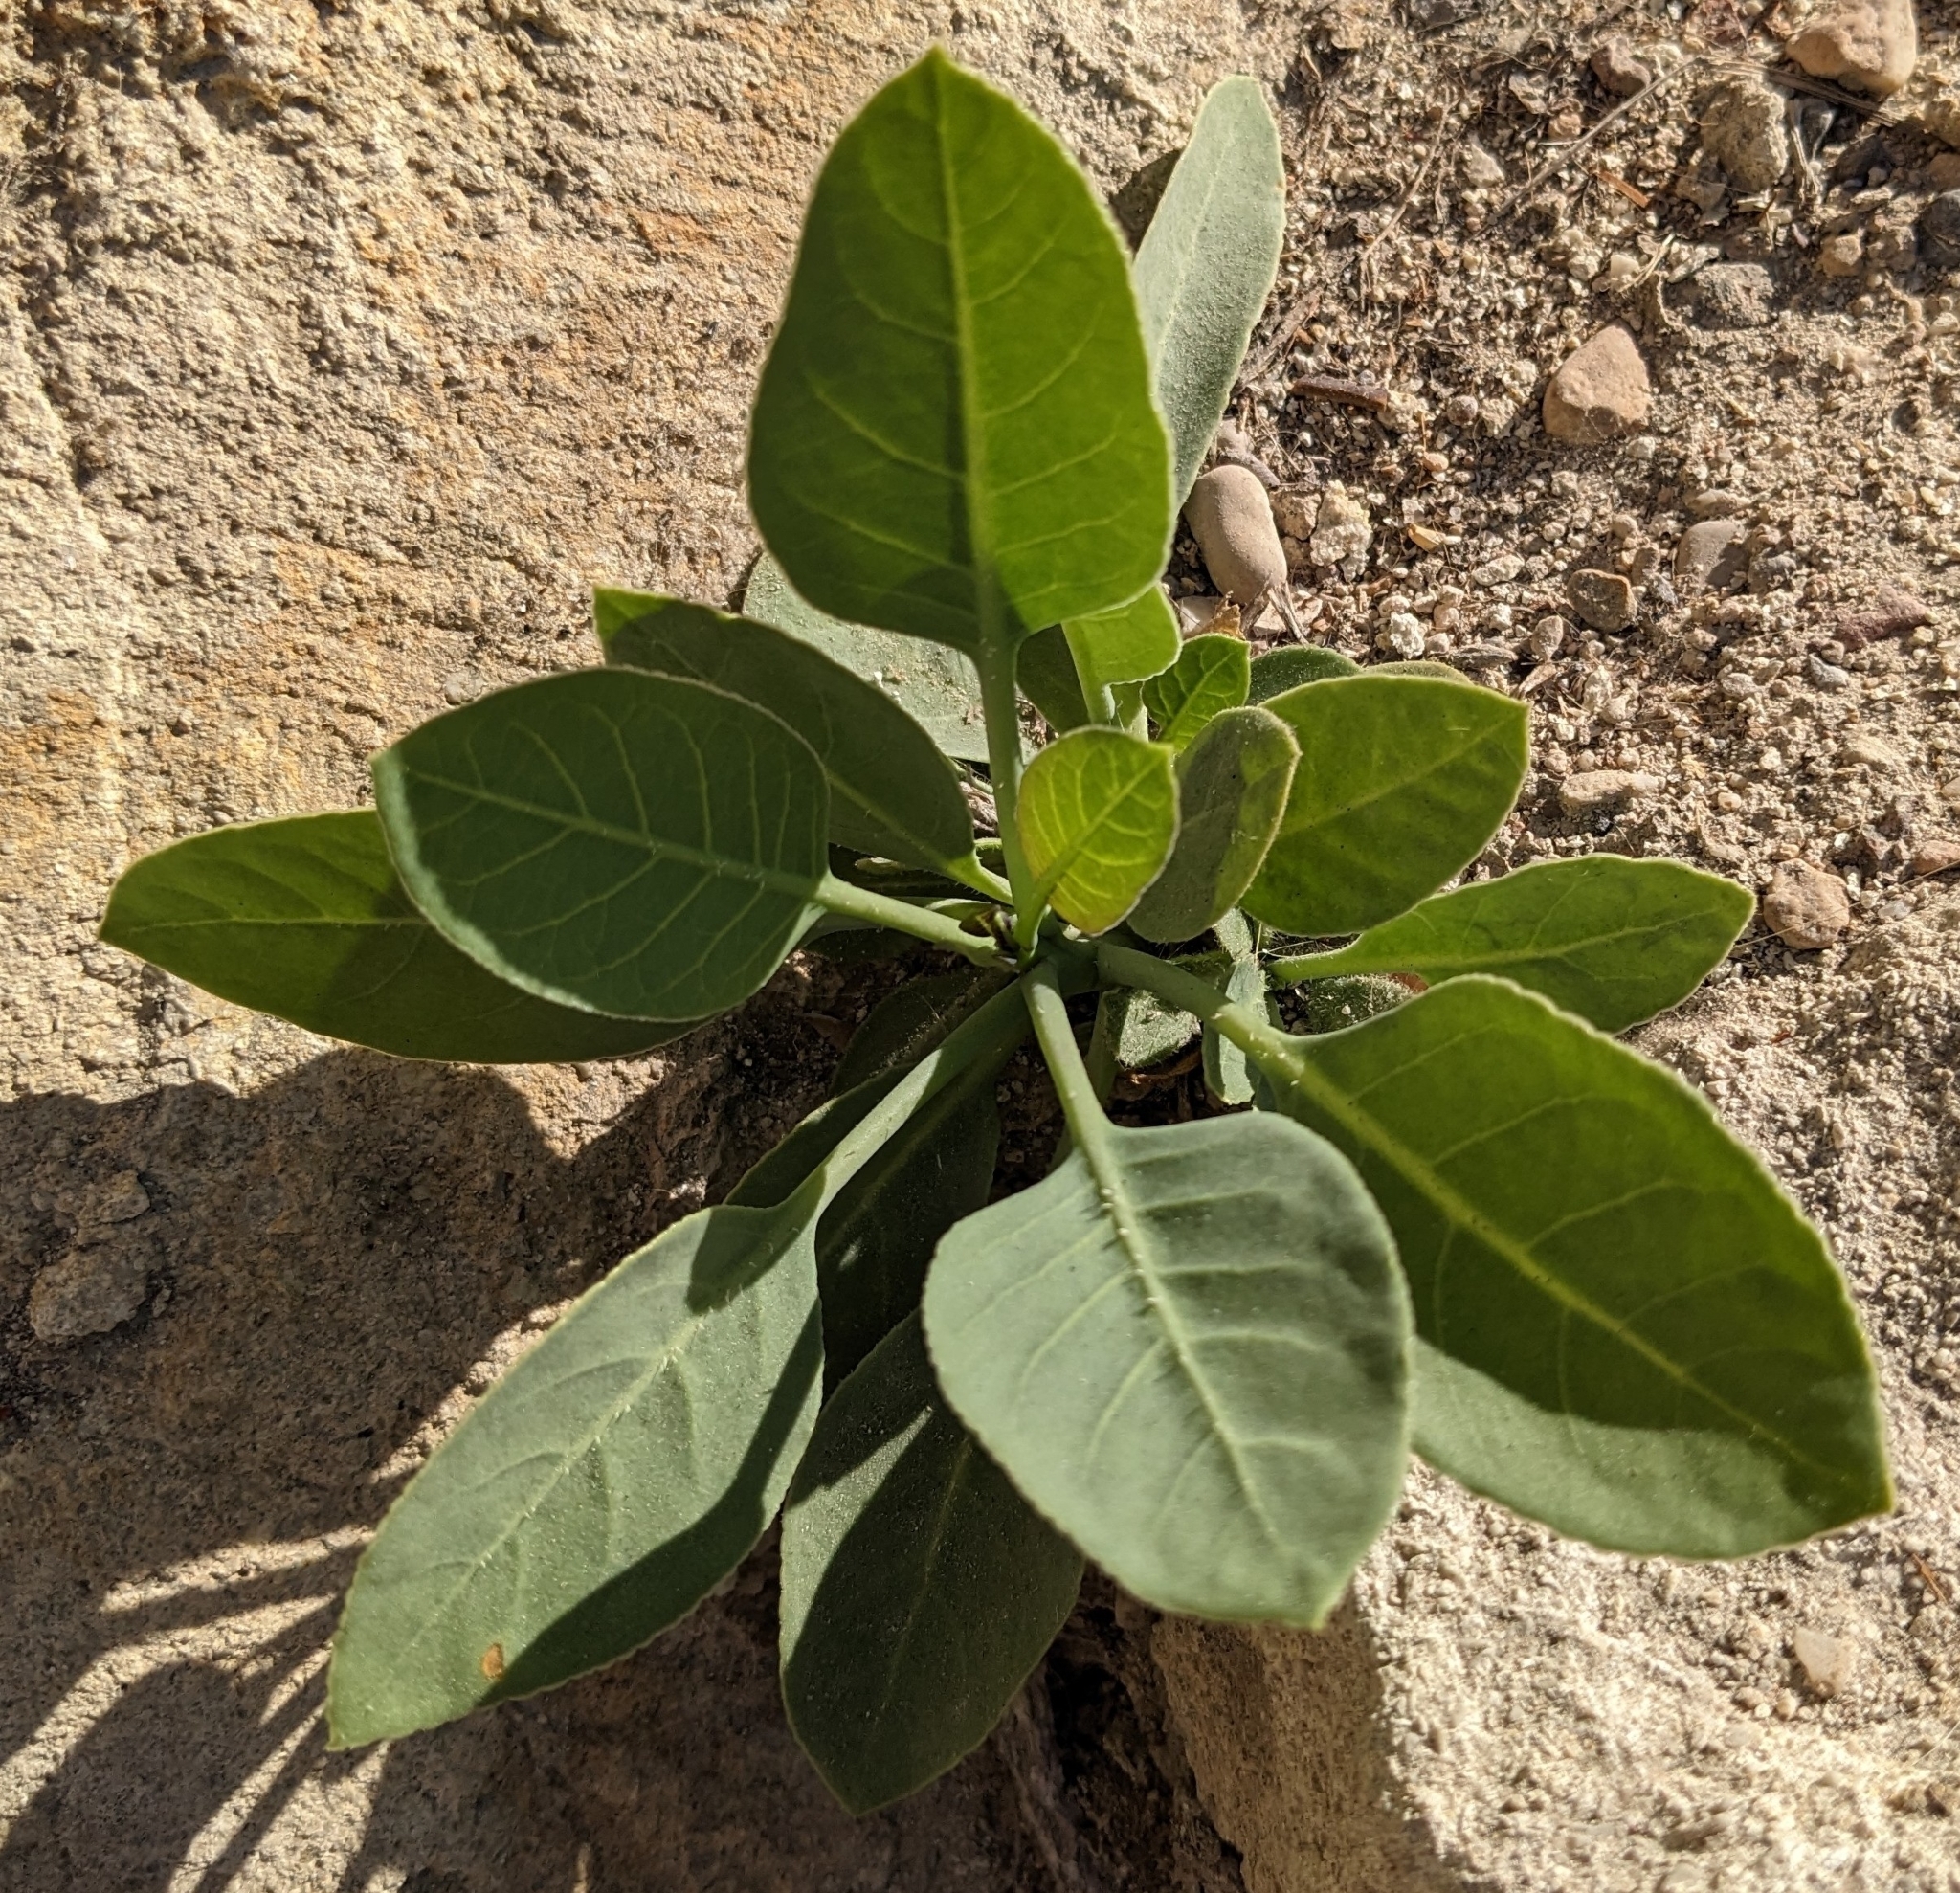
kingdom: Plantae
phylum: Tracheophyta
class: Magnoliopsida
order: Solanales
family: Solanaceae
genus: Nicotiana
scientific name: Nicotiana glauca
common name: Tree tobacco
